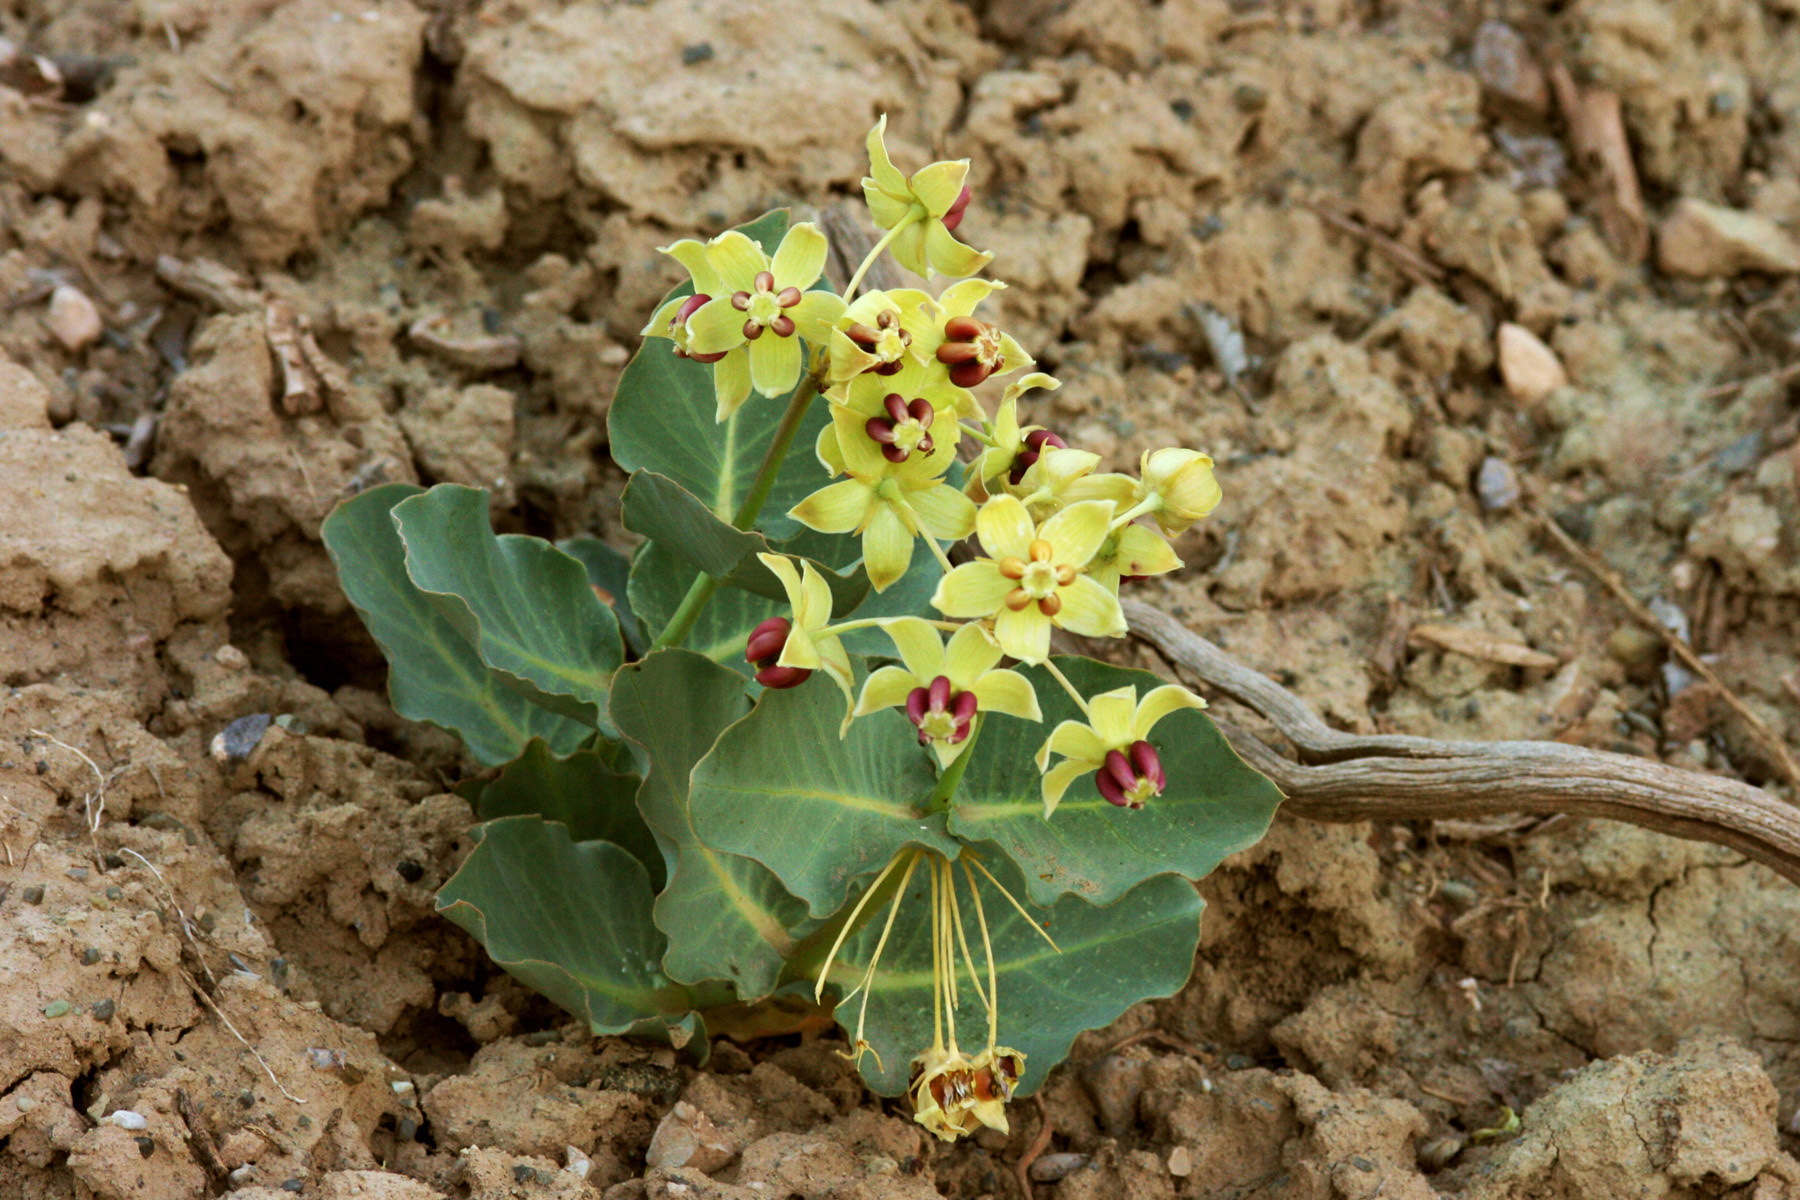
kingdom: Plantae
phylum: Tracheophyta
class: Magnoliopsida
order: Gentianales
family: Apocynaceae
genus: Asclepias
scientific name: Asclepias cryptoceras
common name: Humboldt mountains milkweed
